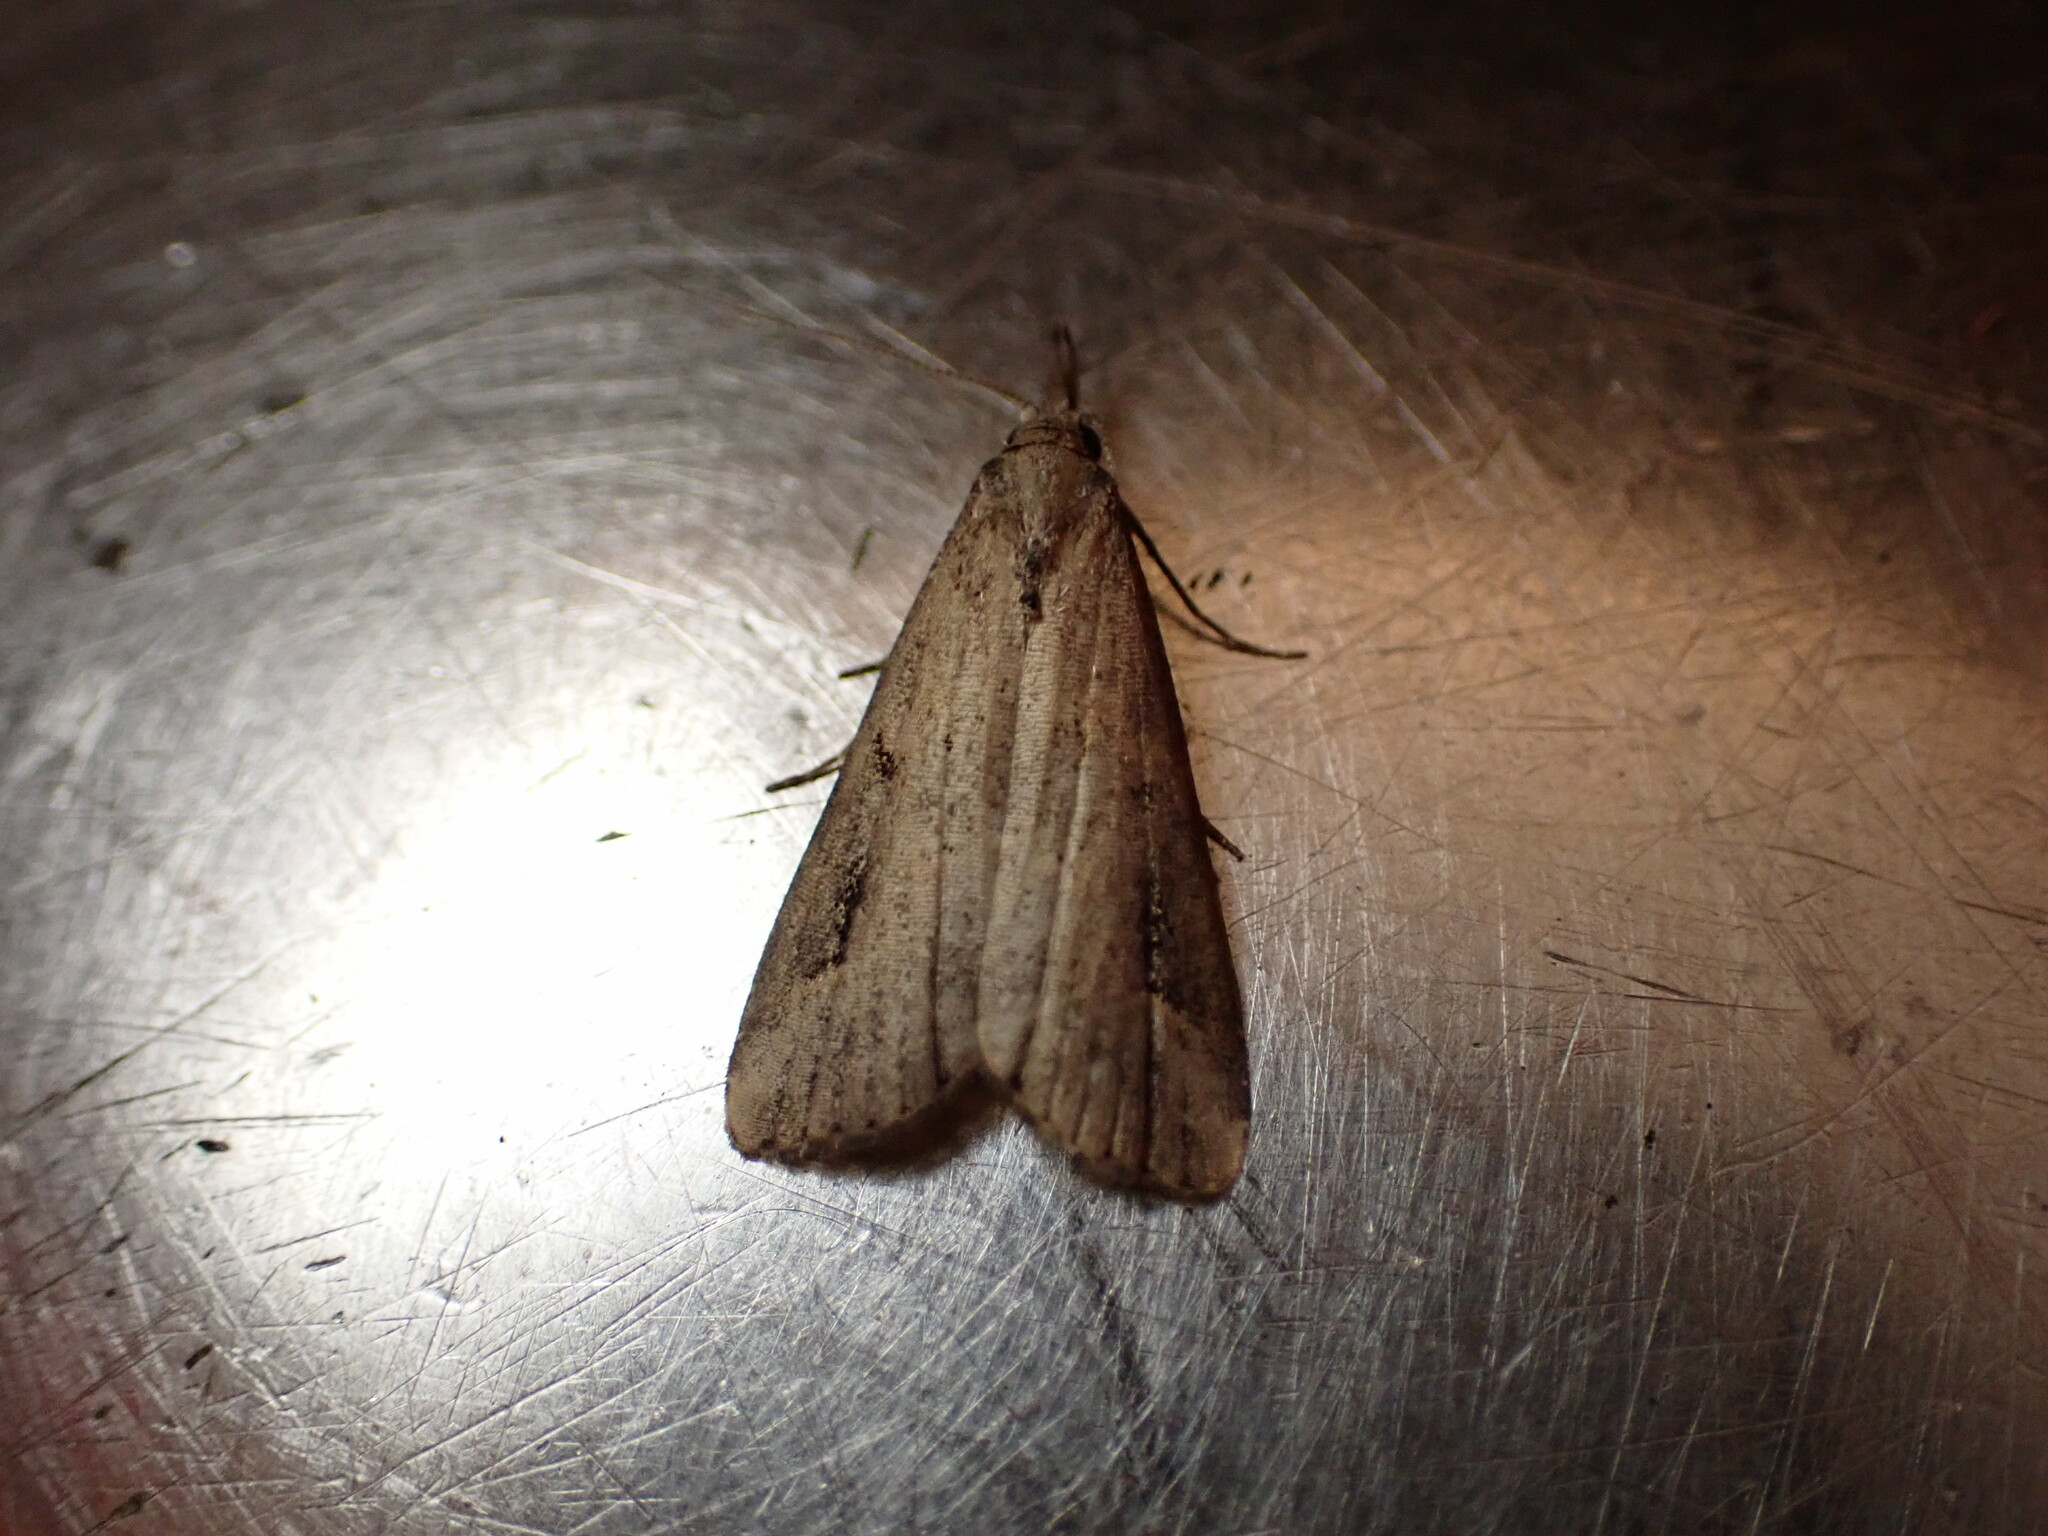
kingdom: Animalia
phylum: Arthropoda
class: Insecta
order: Lepidoptera
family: Erebidae
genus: Schrankia
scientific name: Schrankia costaestrigalis
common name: Pinion-streaked snout
